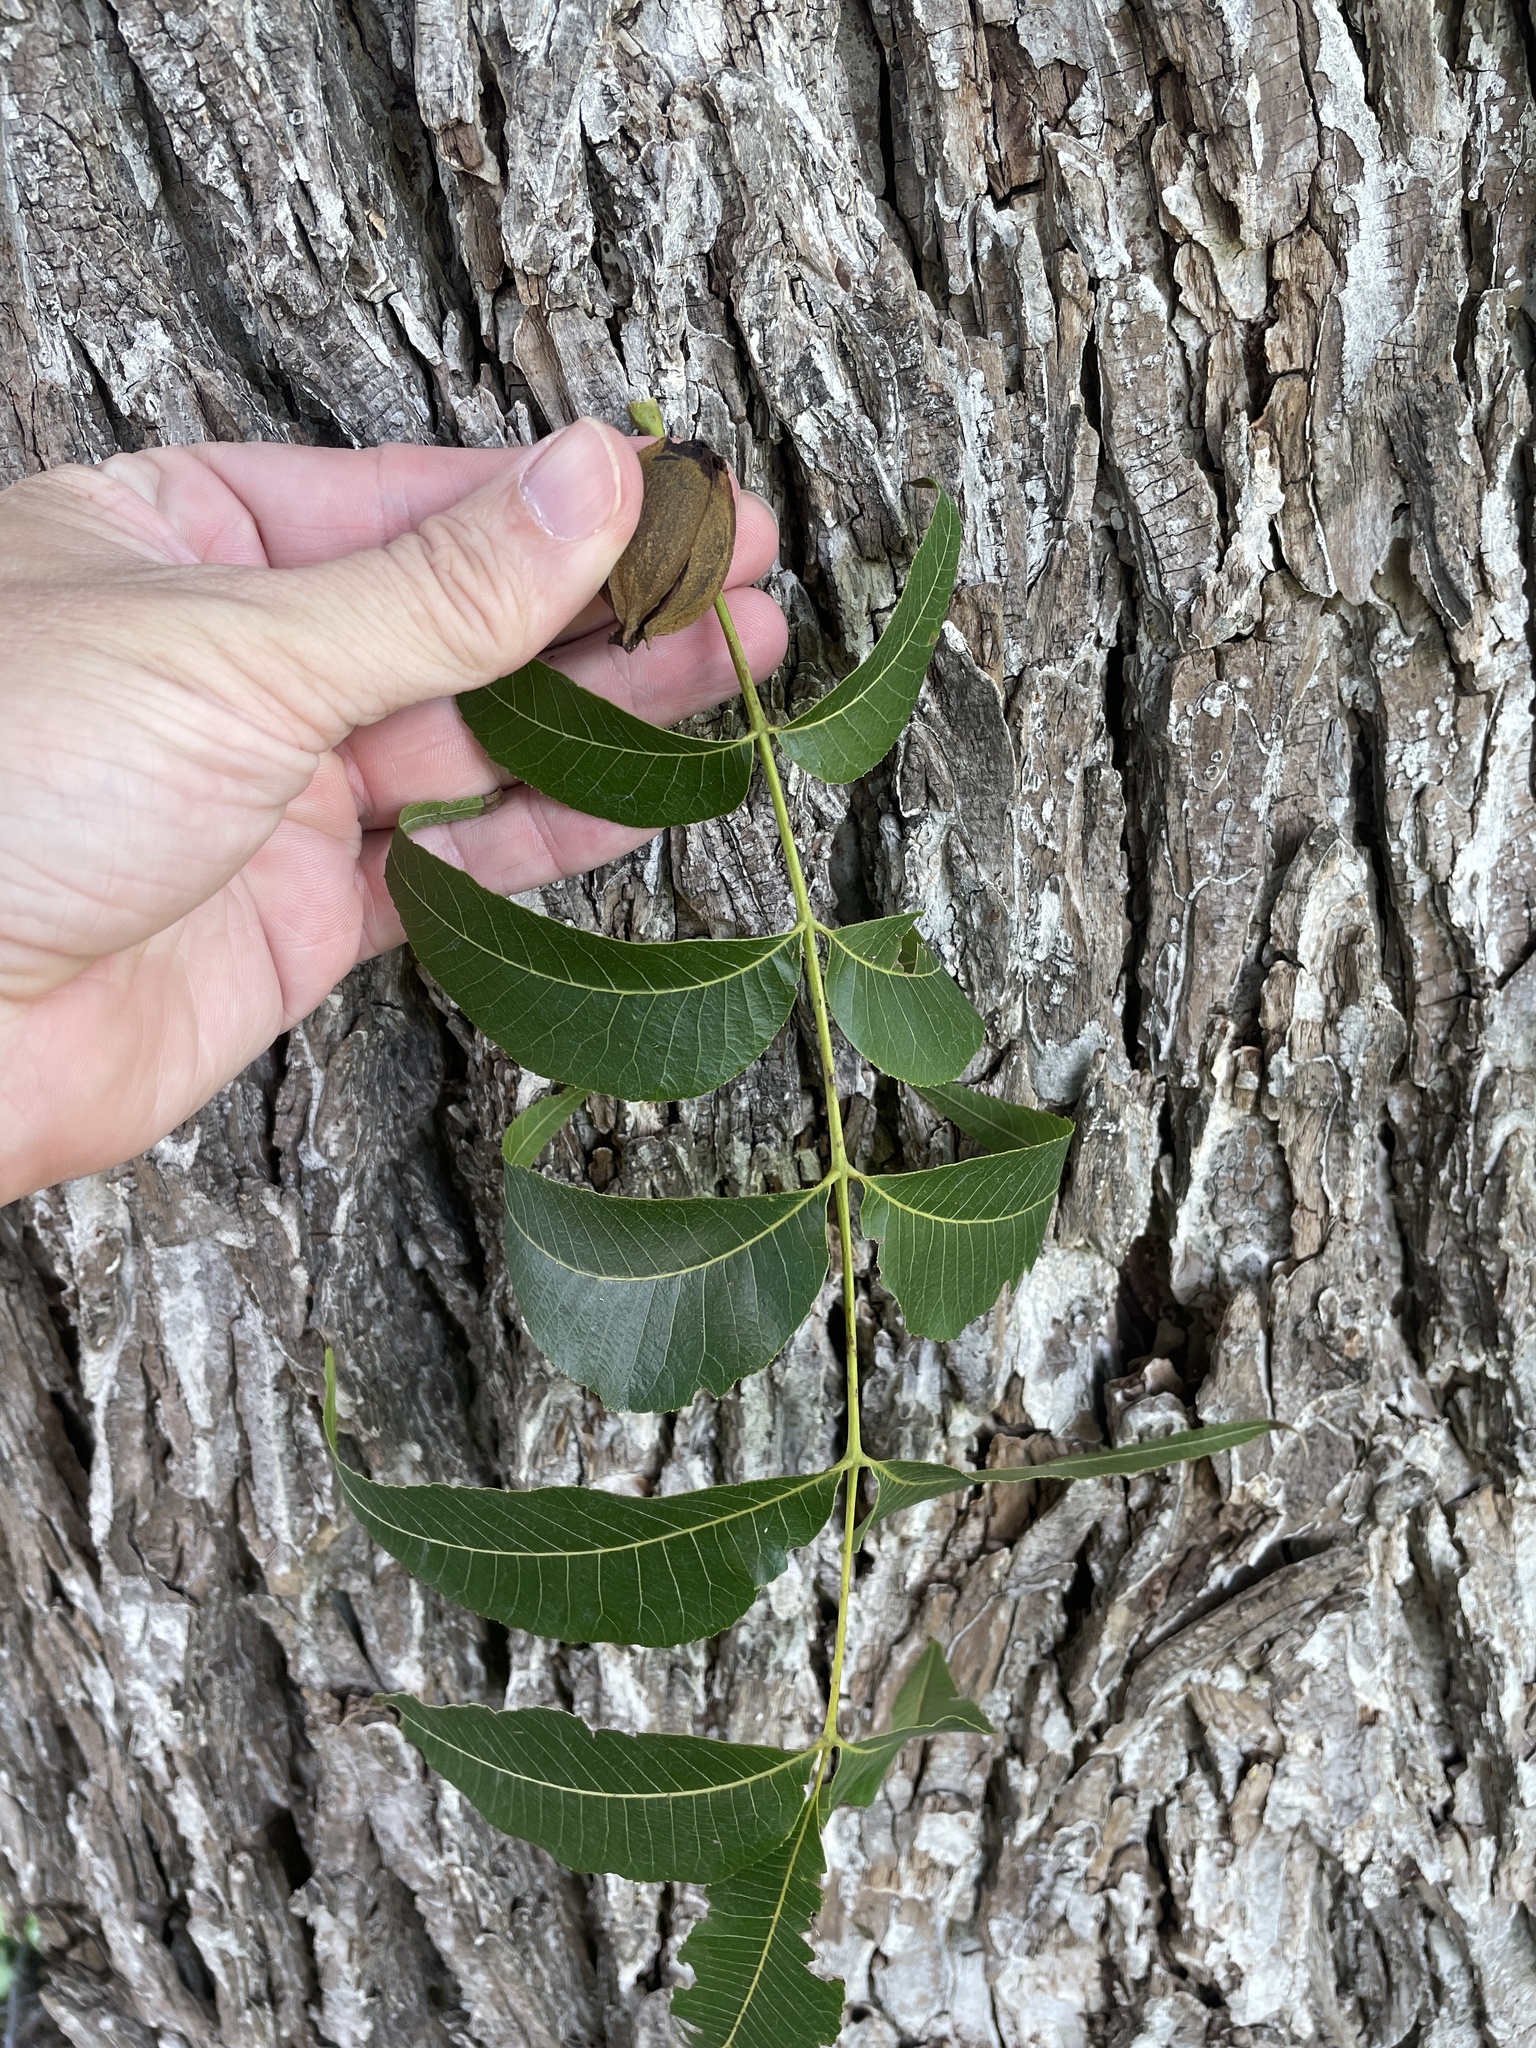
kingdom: Plantae
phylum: Tracheophyta
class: Magnoliopsida
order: Fagales
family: Juglandaceae
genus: Carya
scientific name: Carya illinoinensis
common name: Pecan
